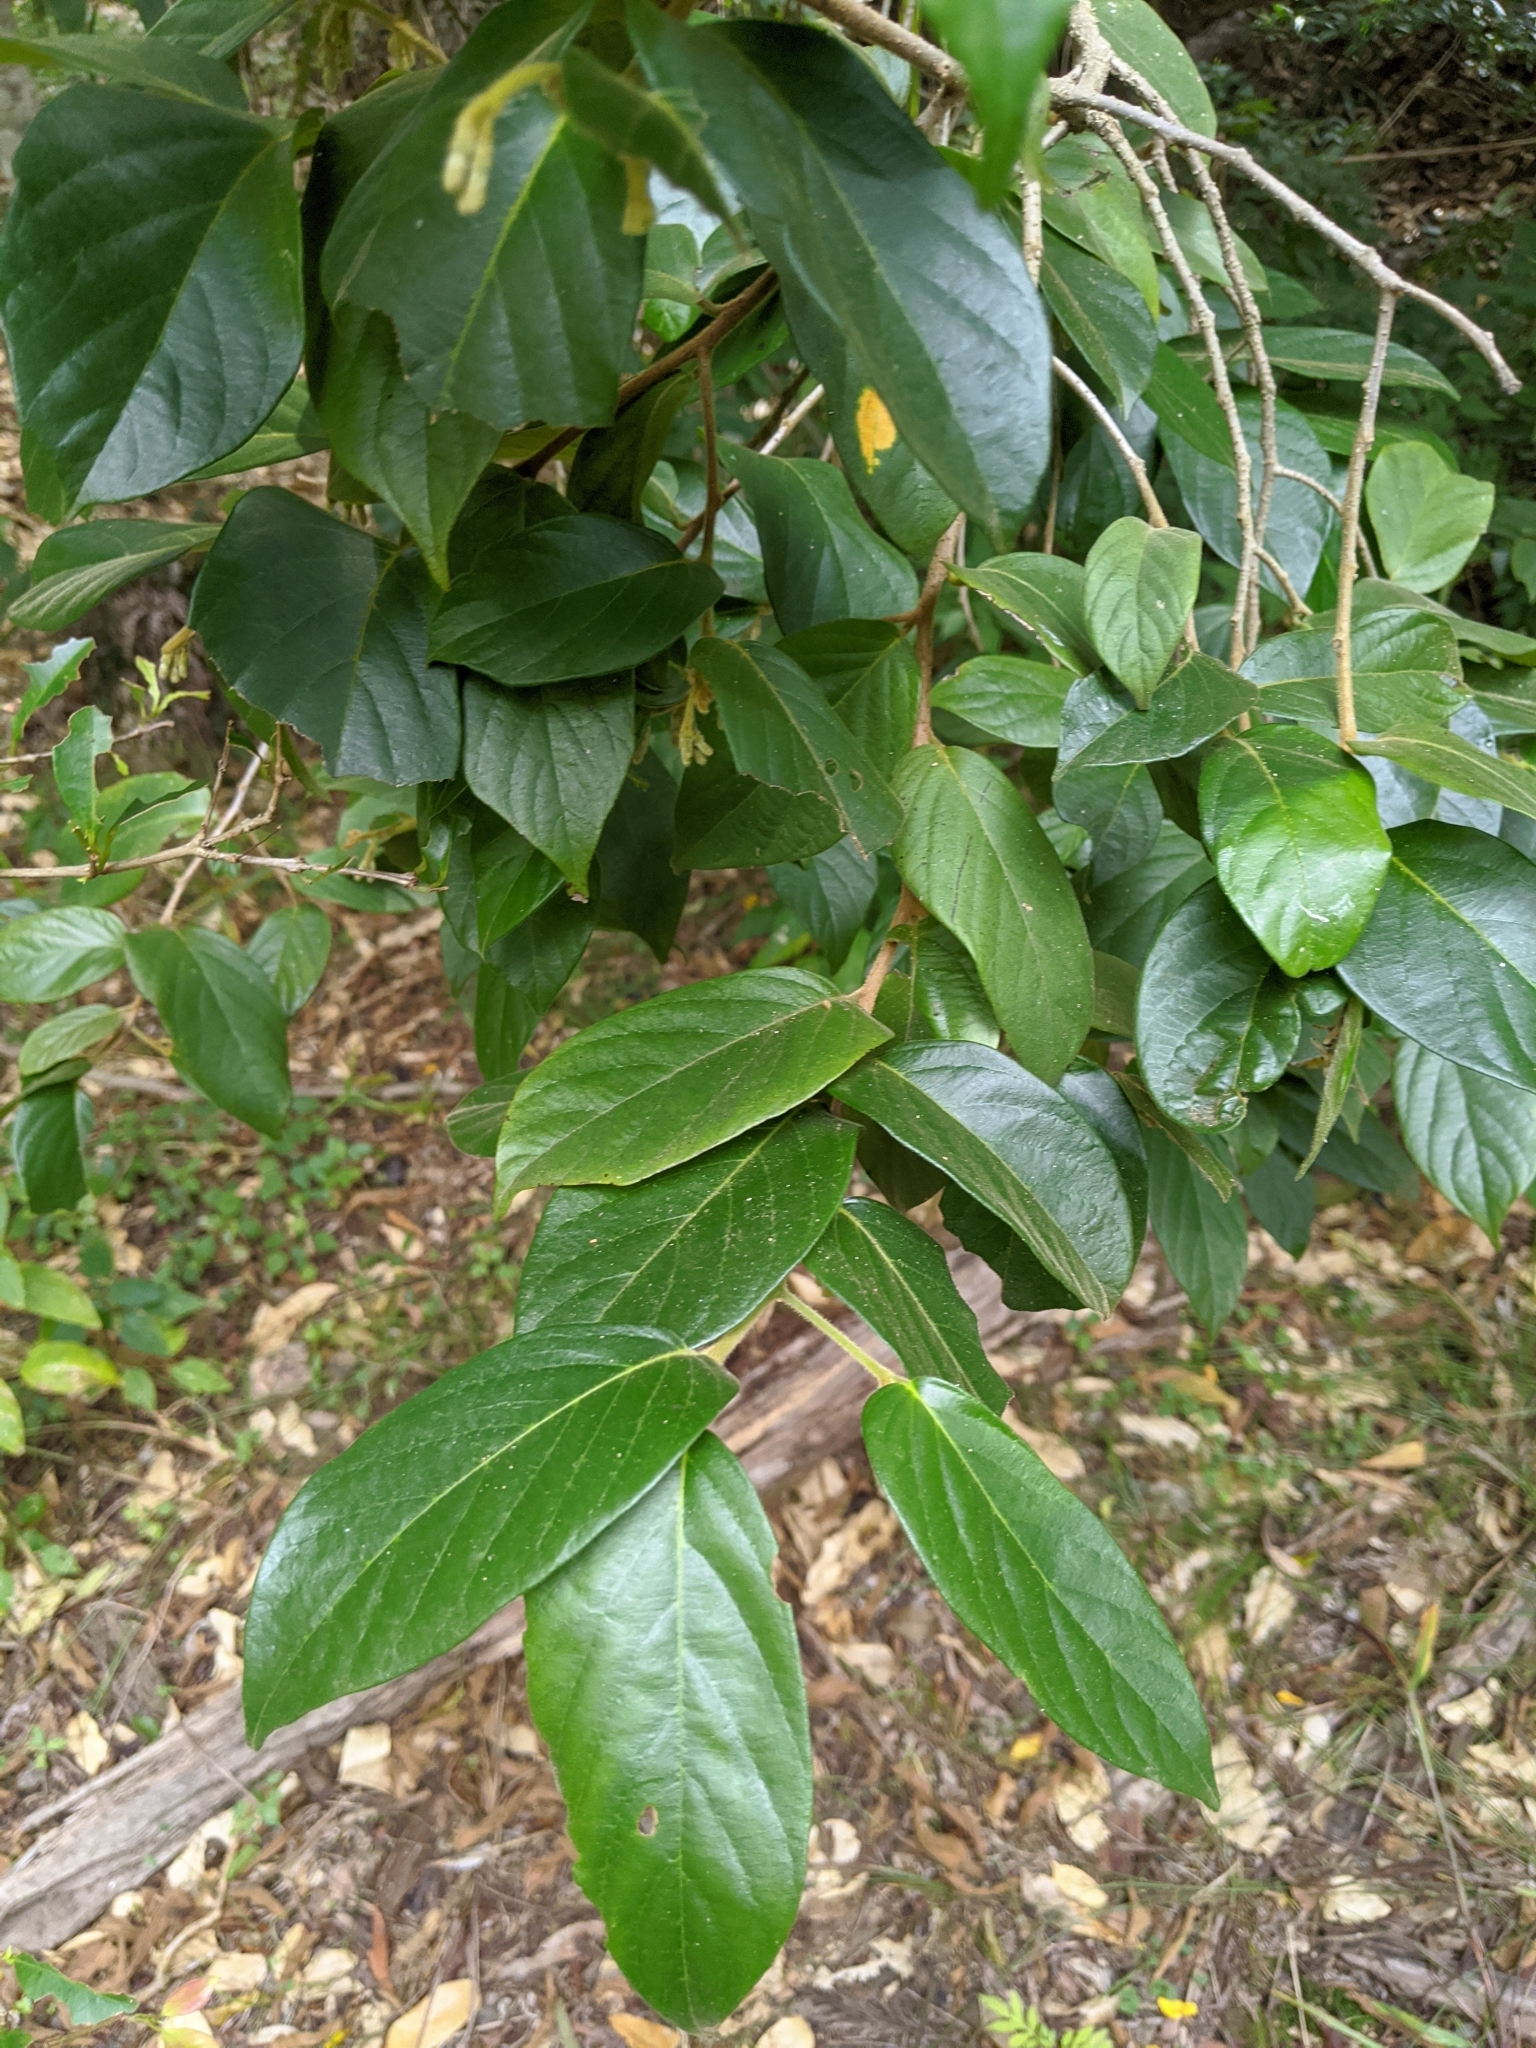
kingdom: Plantae
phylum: Tracheophyta
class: Magnoliopsida
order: Cornales
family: Cornaceae
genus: Alangium
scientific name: Alangium villosum
